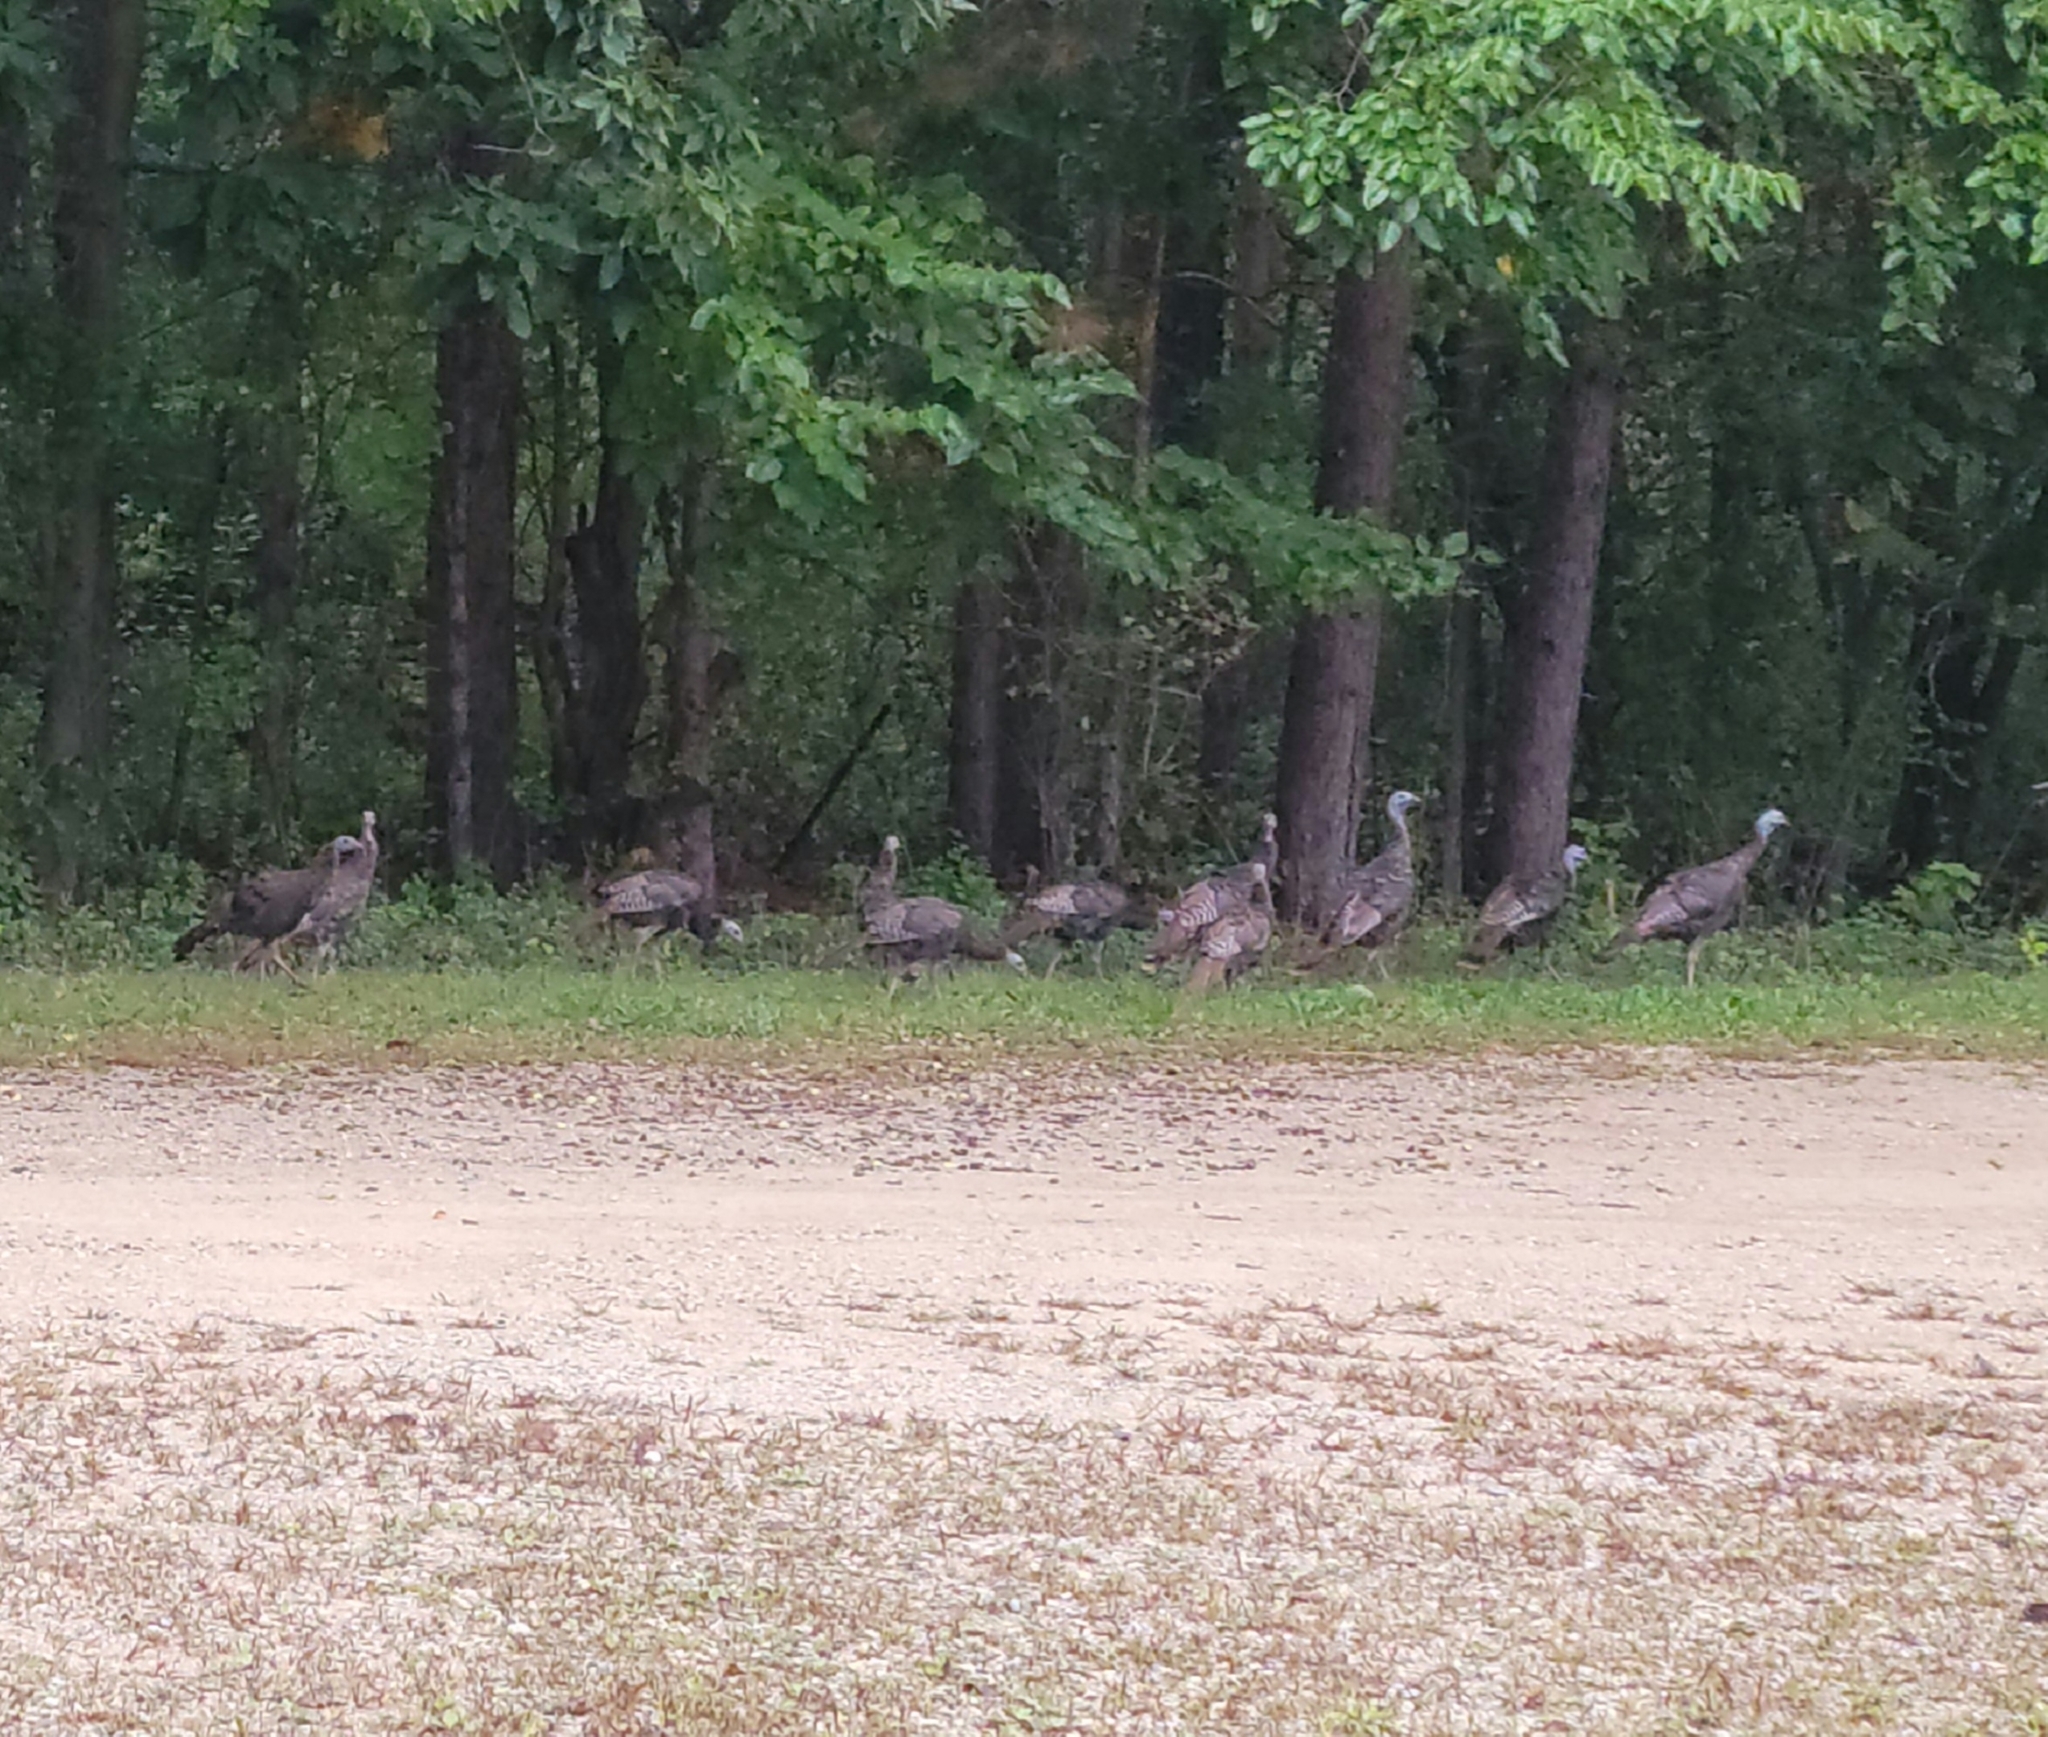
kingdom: Animalia
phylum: Chordata
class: Aves
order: Galliformes
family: Phasianidae
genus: Meleagris
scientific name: Meleagris gallopavo
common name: Wild turkey
